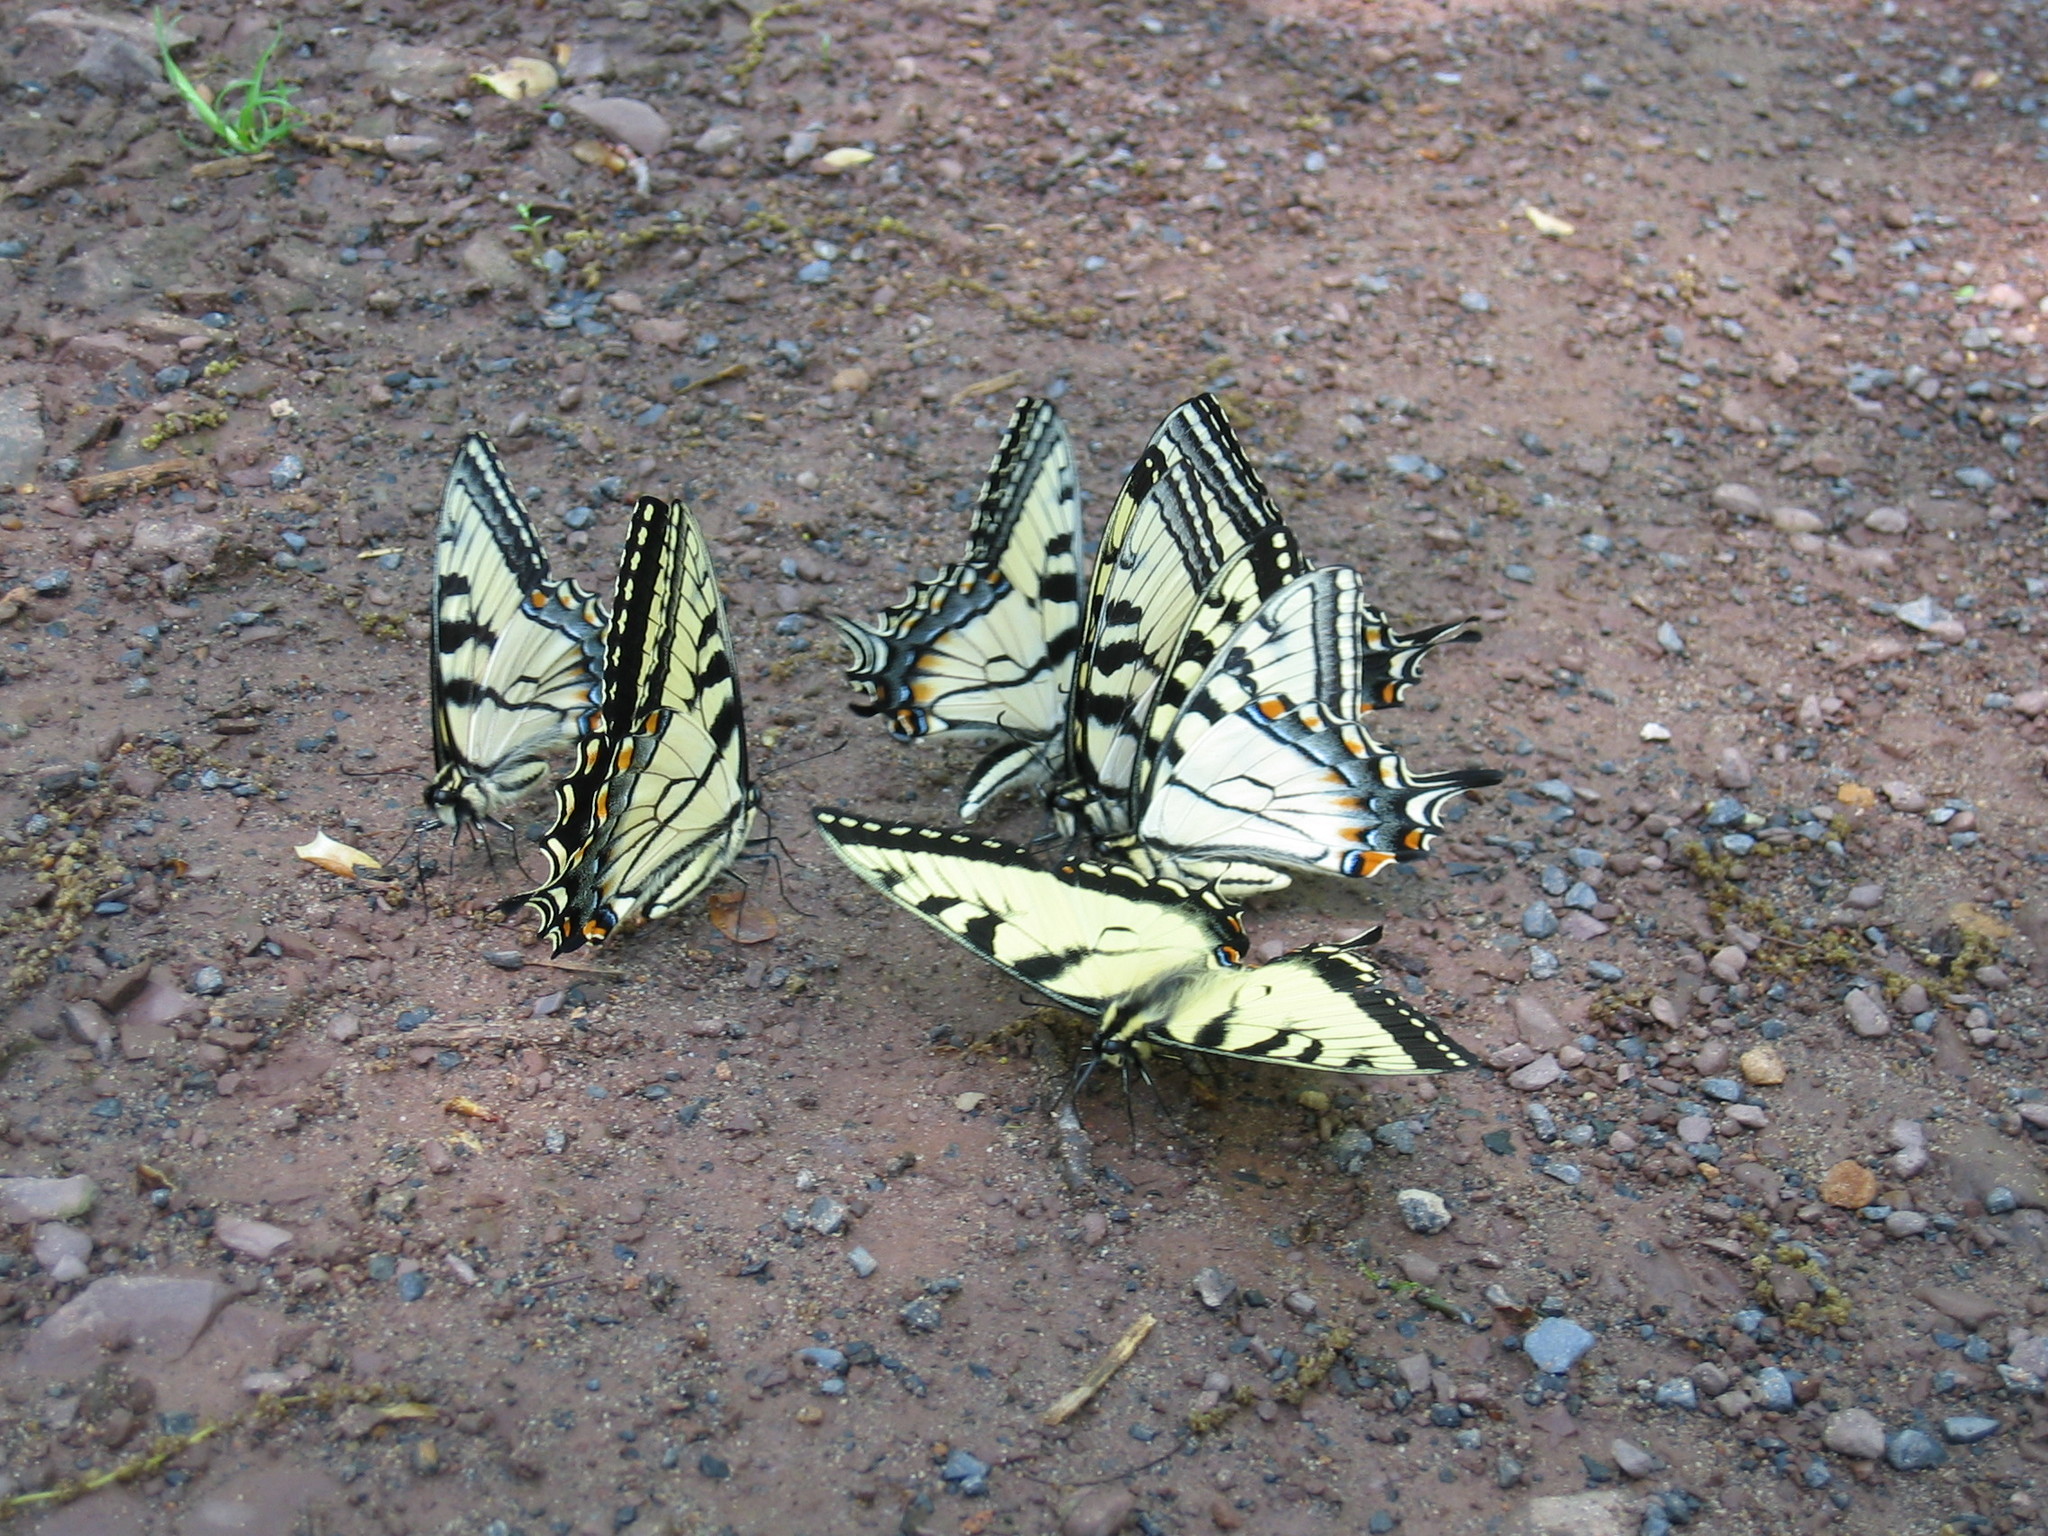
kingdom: Animalia
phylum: Arthropoda
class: Insecta
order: Lepidoptera
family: Papilionidae
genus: Papilio
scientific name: Papilio glaucus
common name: Tiger swallowtail
